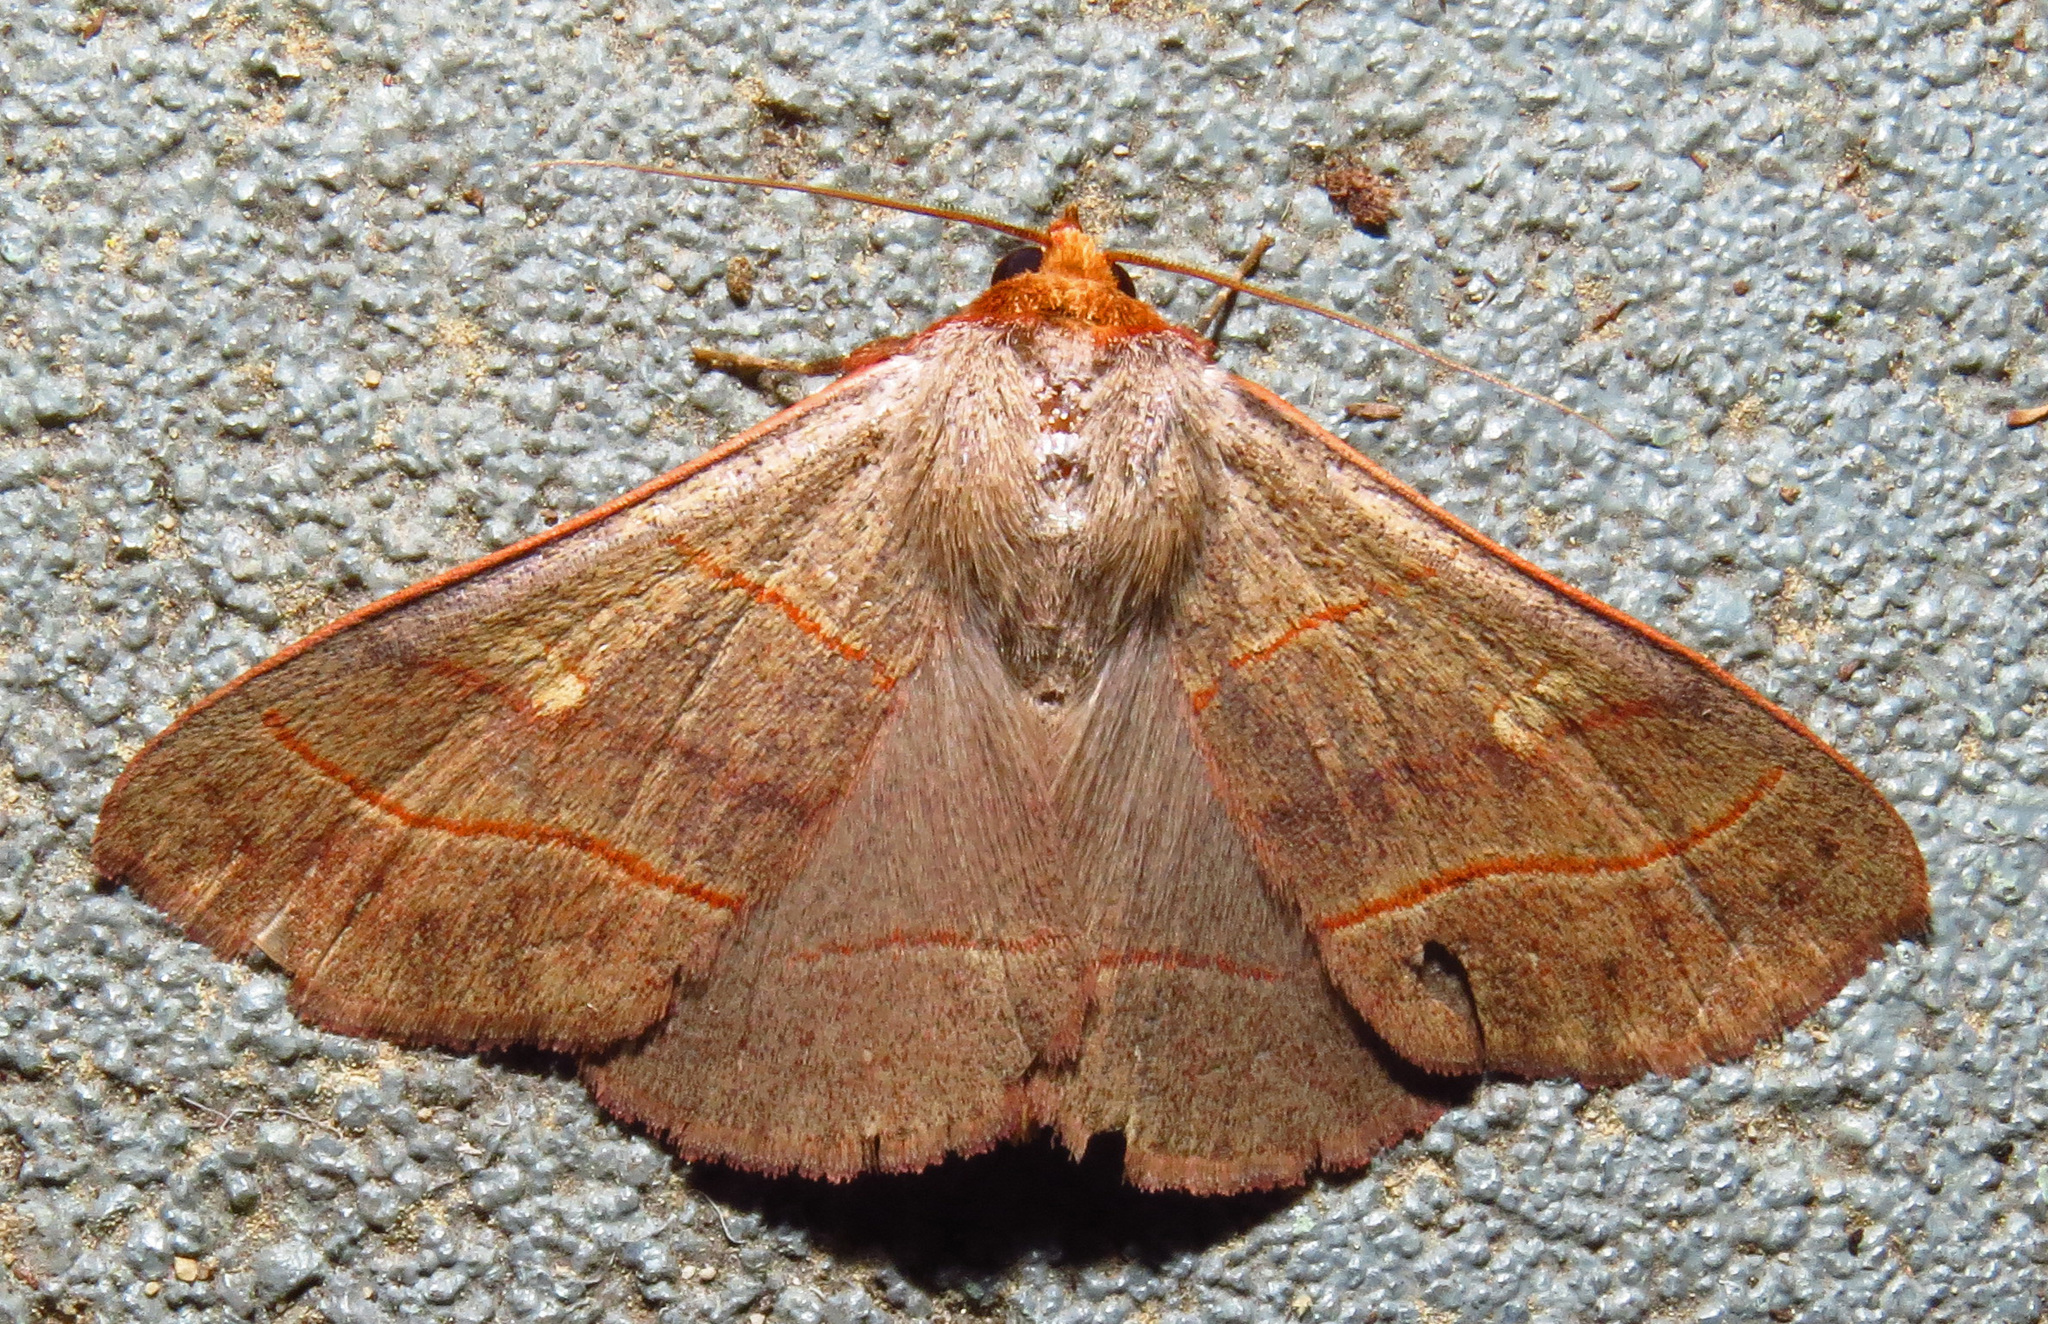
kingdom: Animalia
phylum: Arthropoda
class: Insecta
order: Lepidoptera
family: Erebidae
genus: Panopoda
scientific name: Panopoda rufimargo
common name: Red-lined panopoda moth
